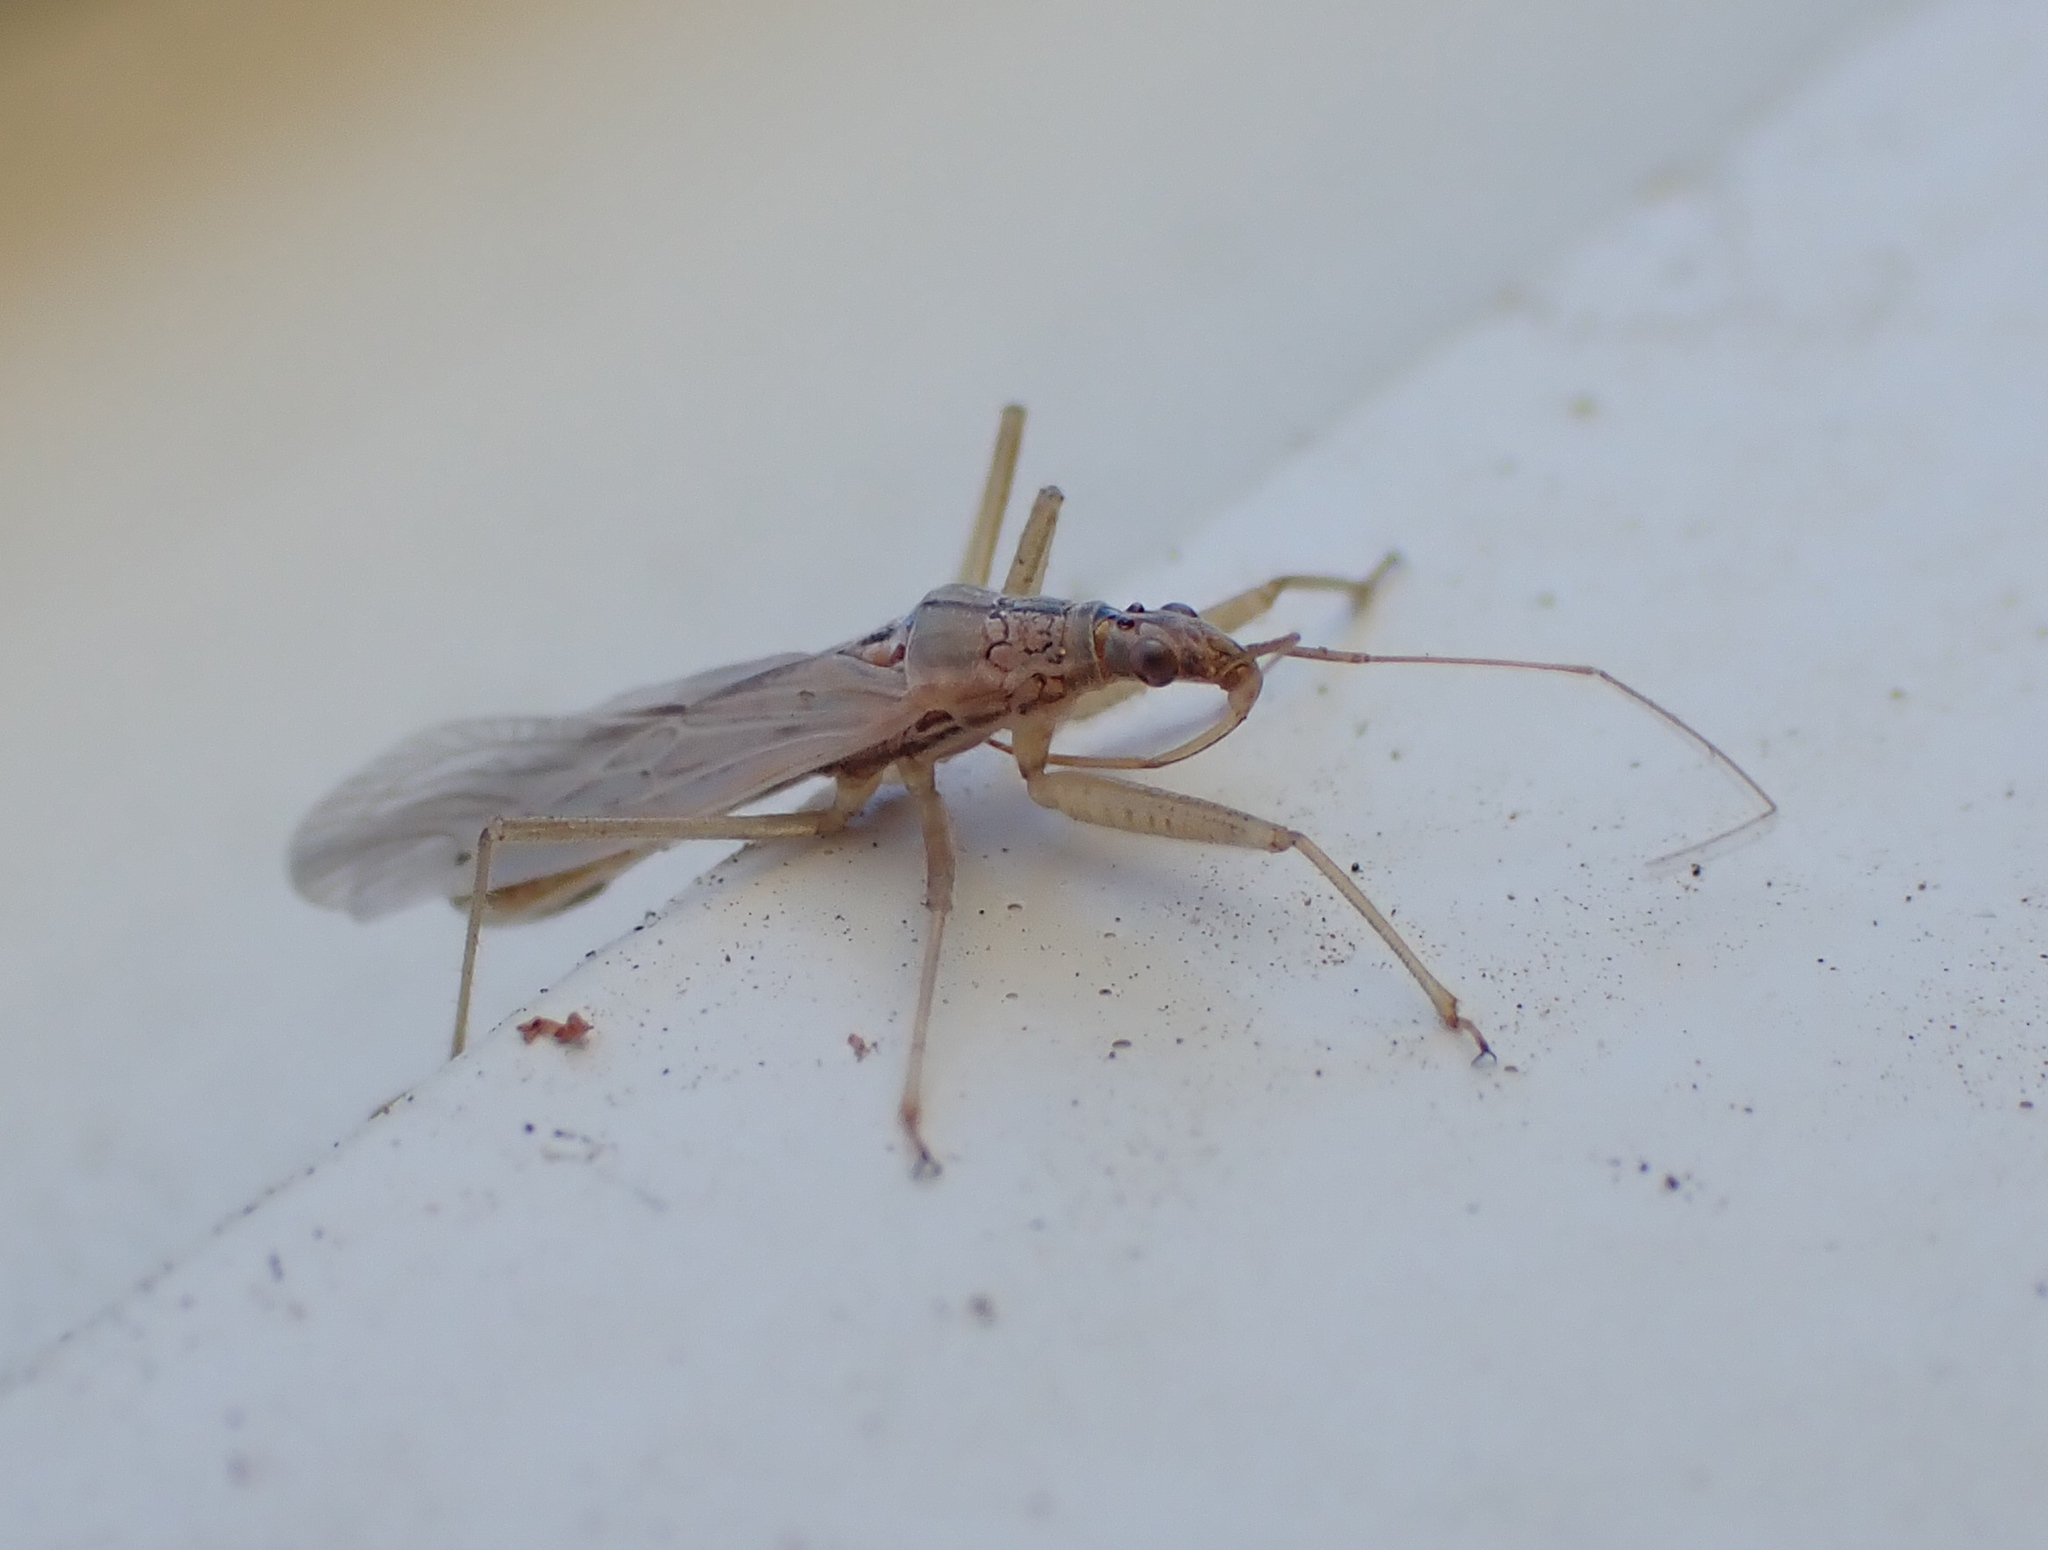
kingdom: Animalia
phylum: Arthropoda
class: Insecta
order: Hemiptera
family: Nabidae
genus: Nabis
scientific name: Nabis kinbergii
